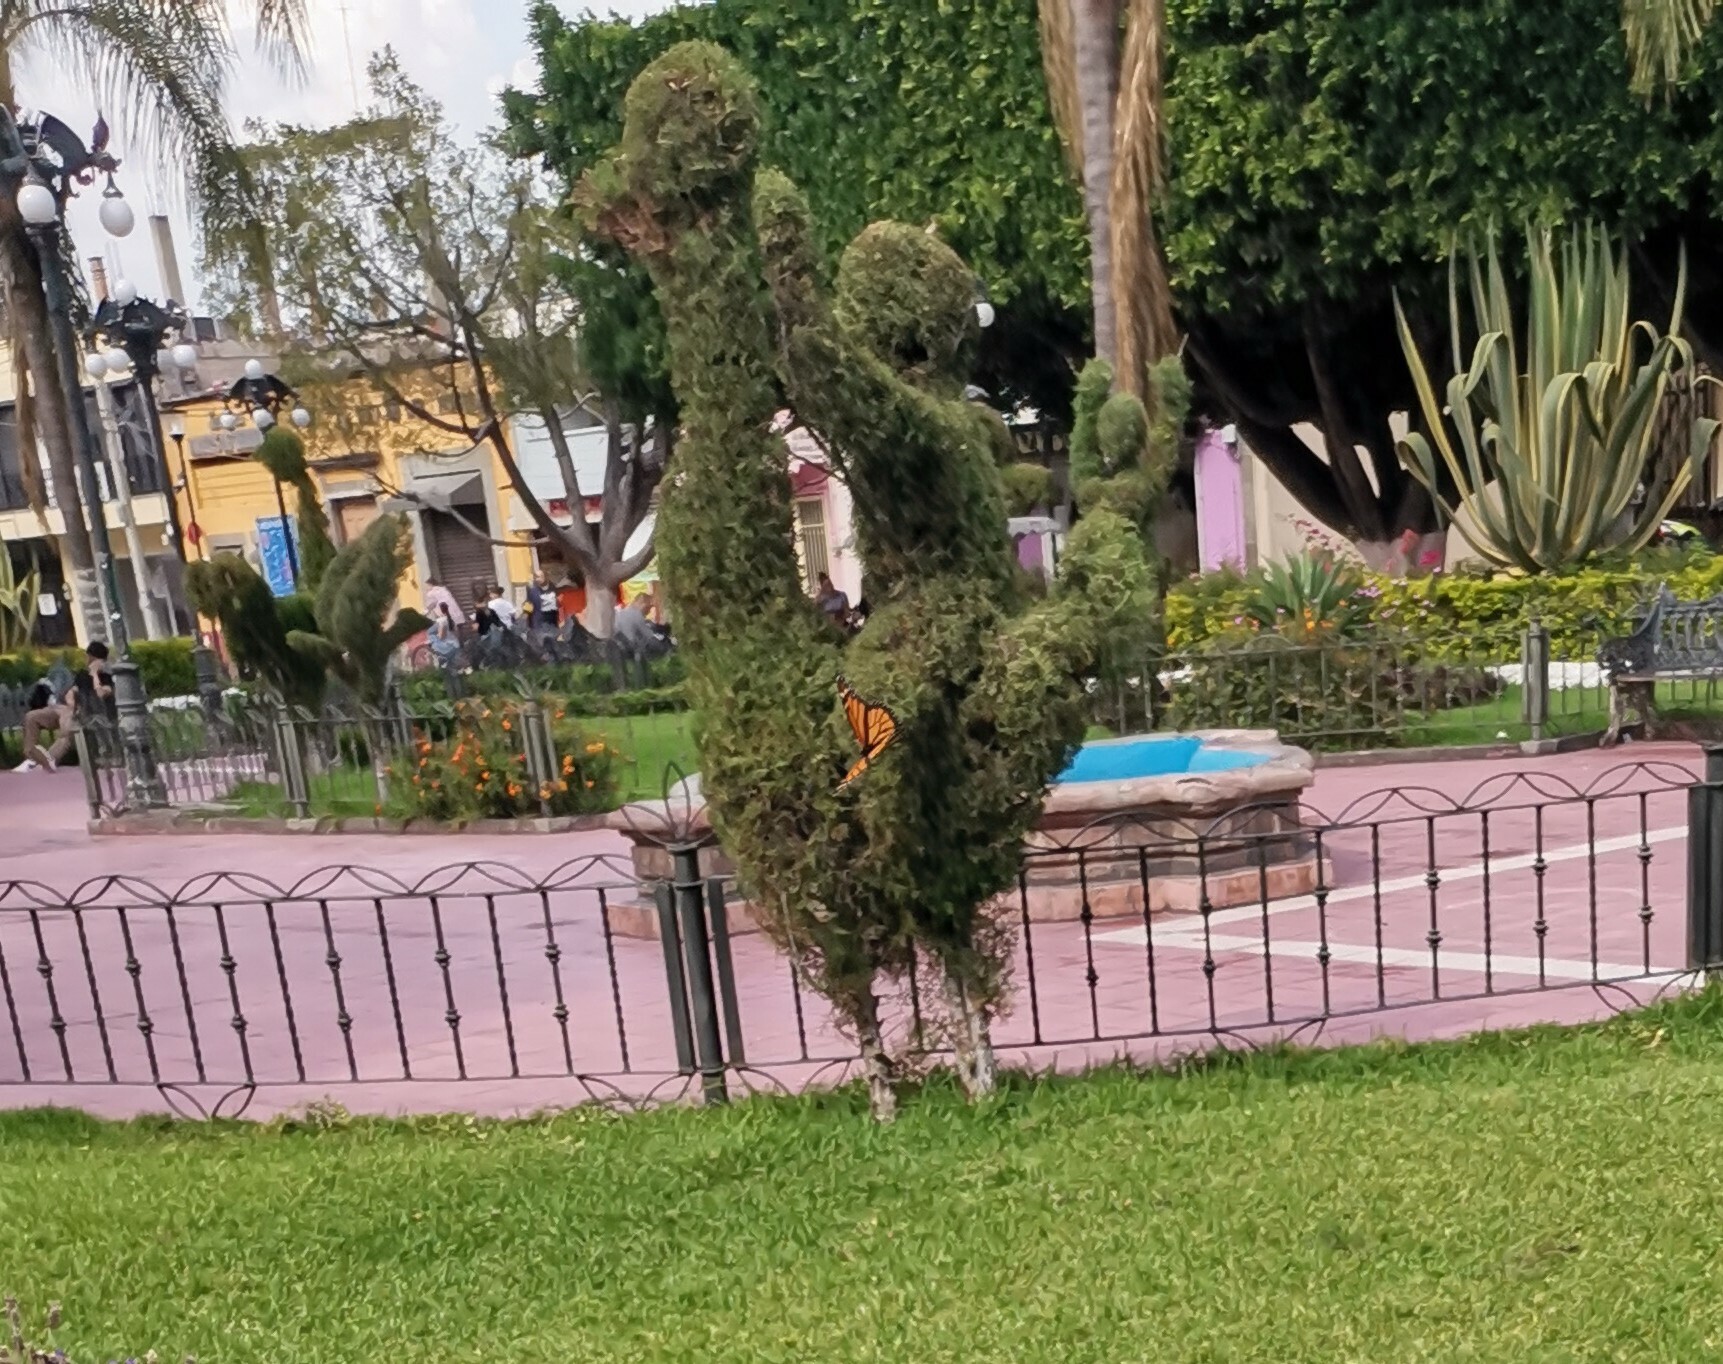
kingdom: Animalia
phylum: Arthropoda
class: Insecta
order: Lepidoptera
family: Nymphalidae
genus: Danaus
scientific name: Danaus plexippus
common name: Monarch
